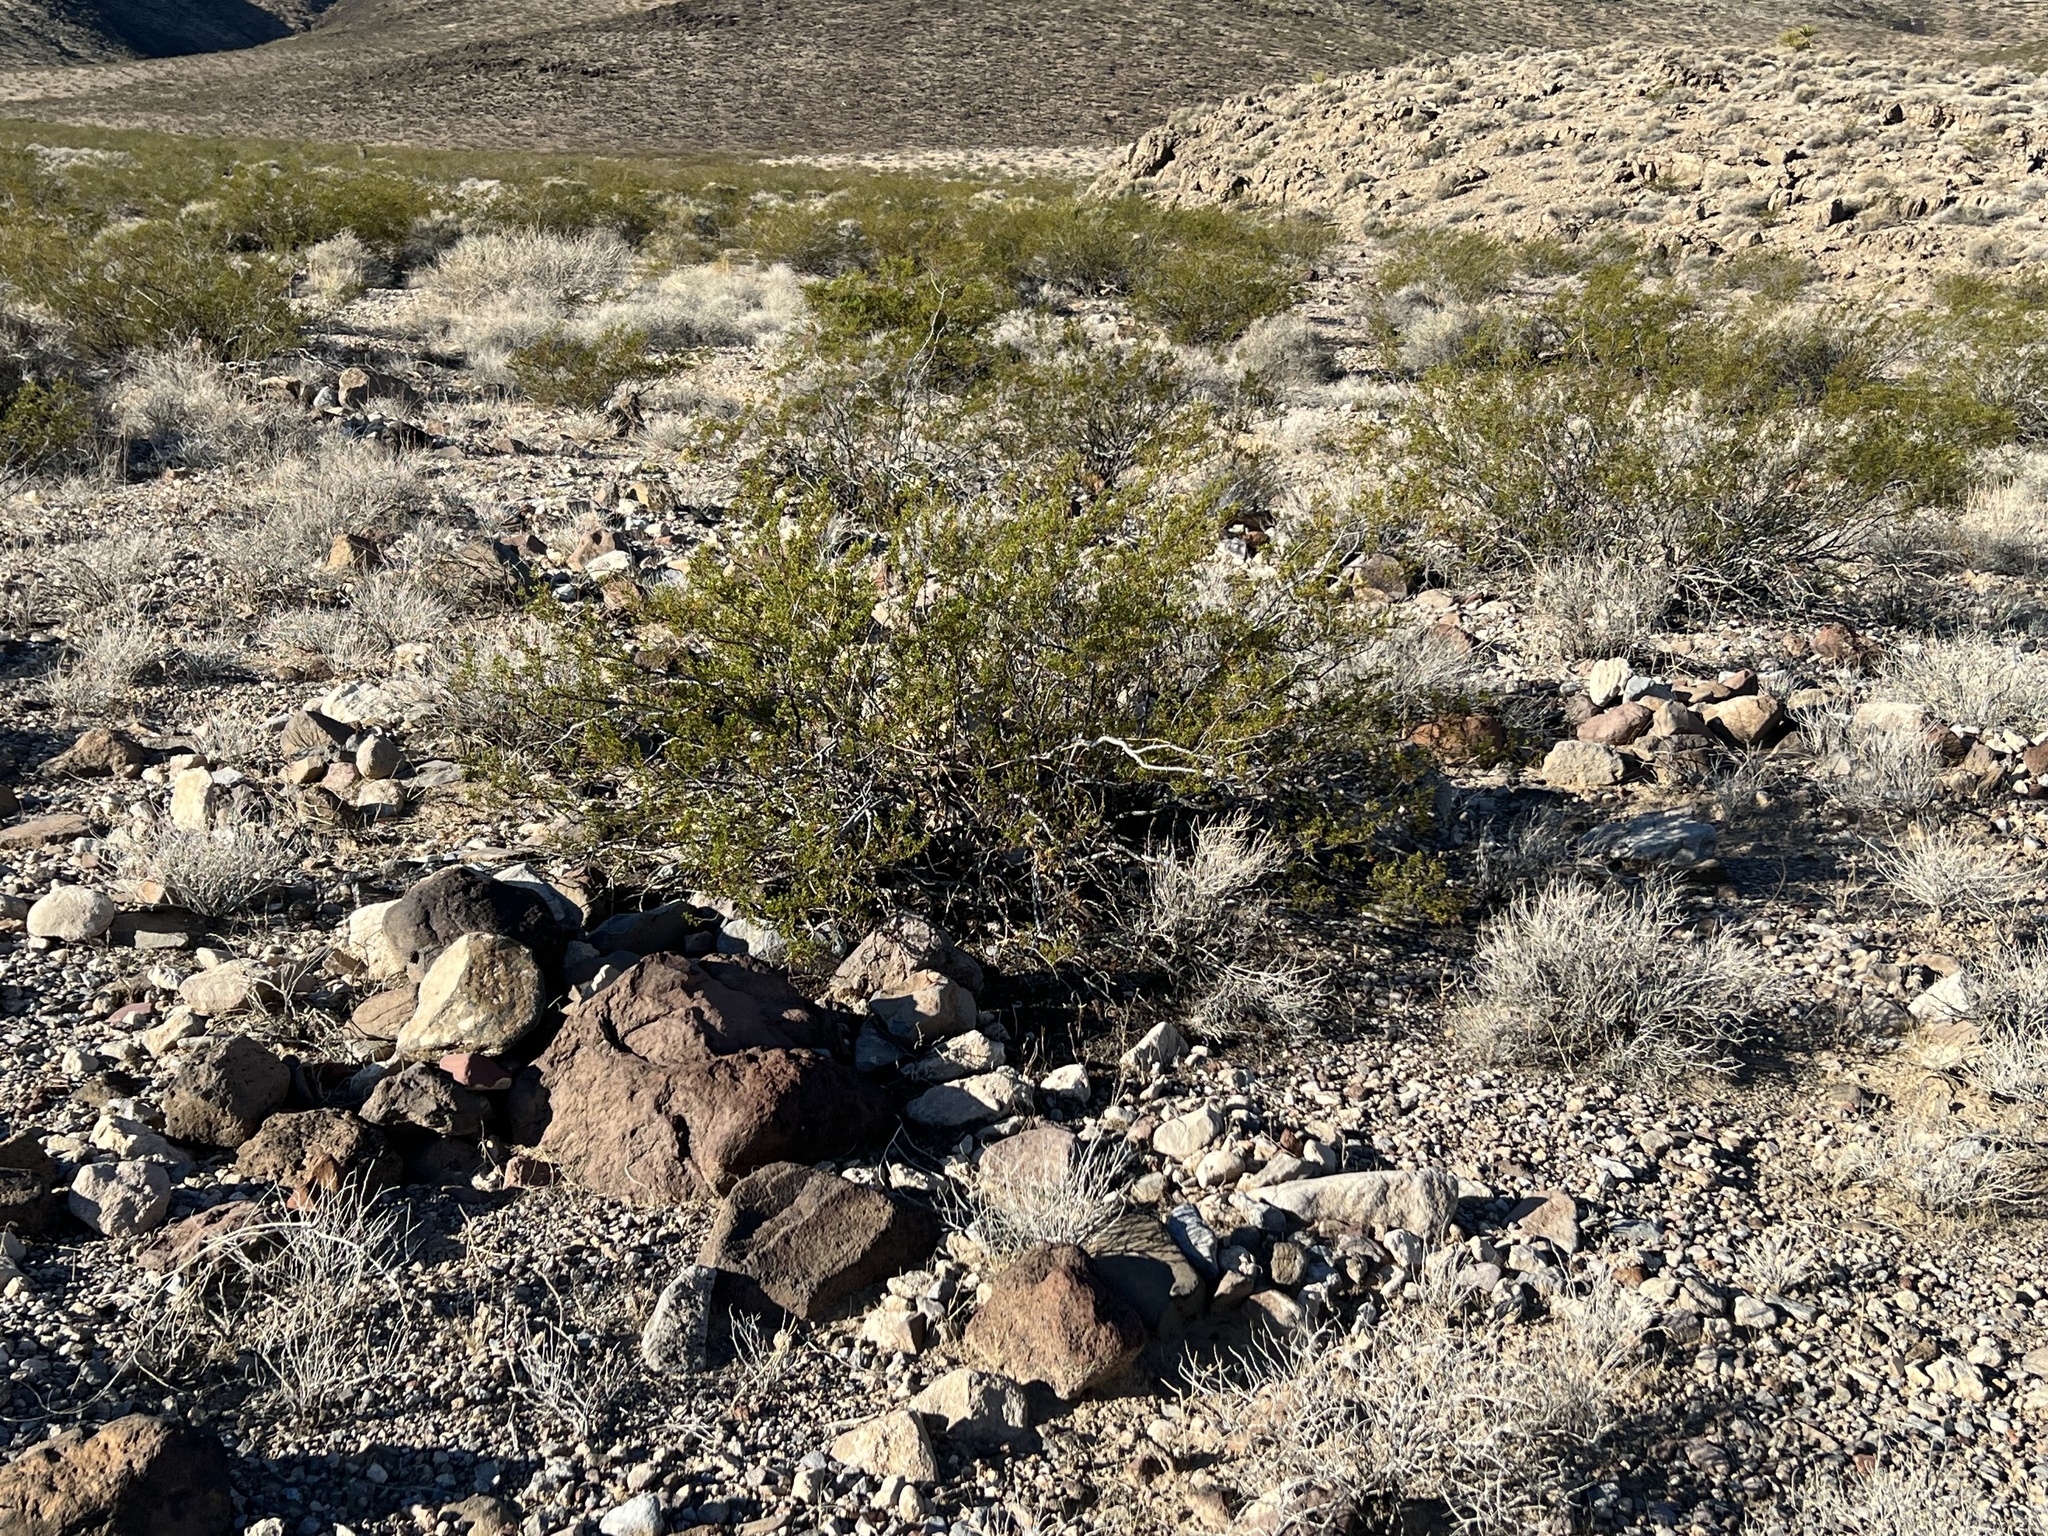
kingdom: Plantae
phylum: Tracheophyta
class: Magnoliopsida
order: Zygophyllales
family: Zygophyllaceae
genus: Larrea
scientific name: Larrea tridentata
